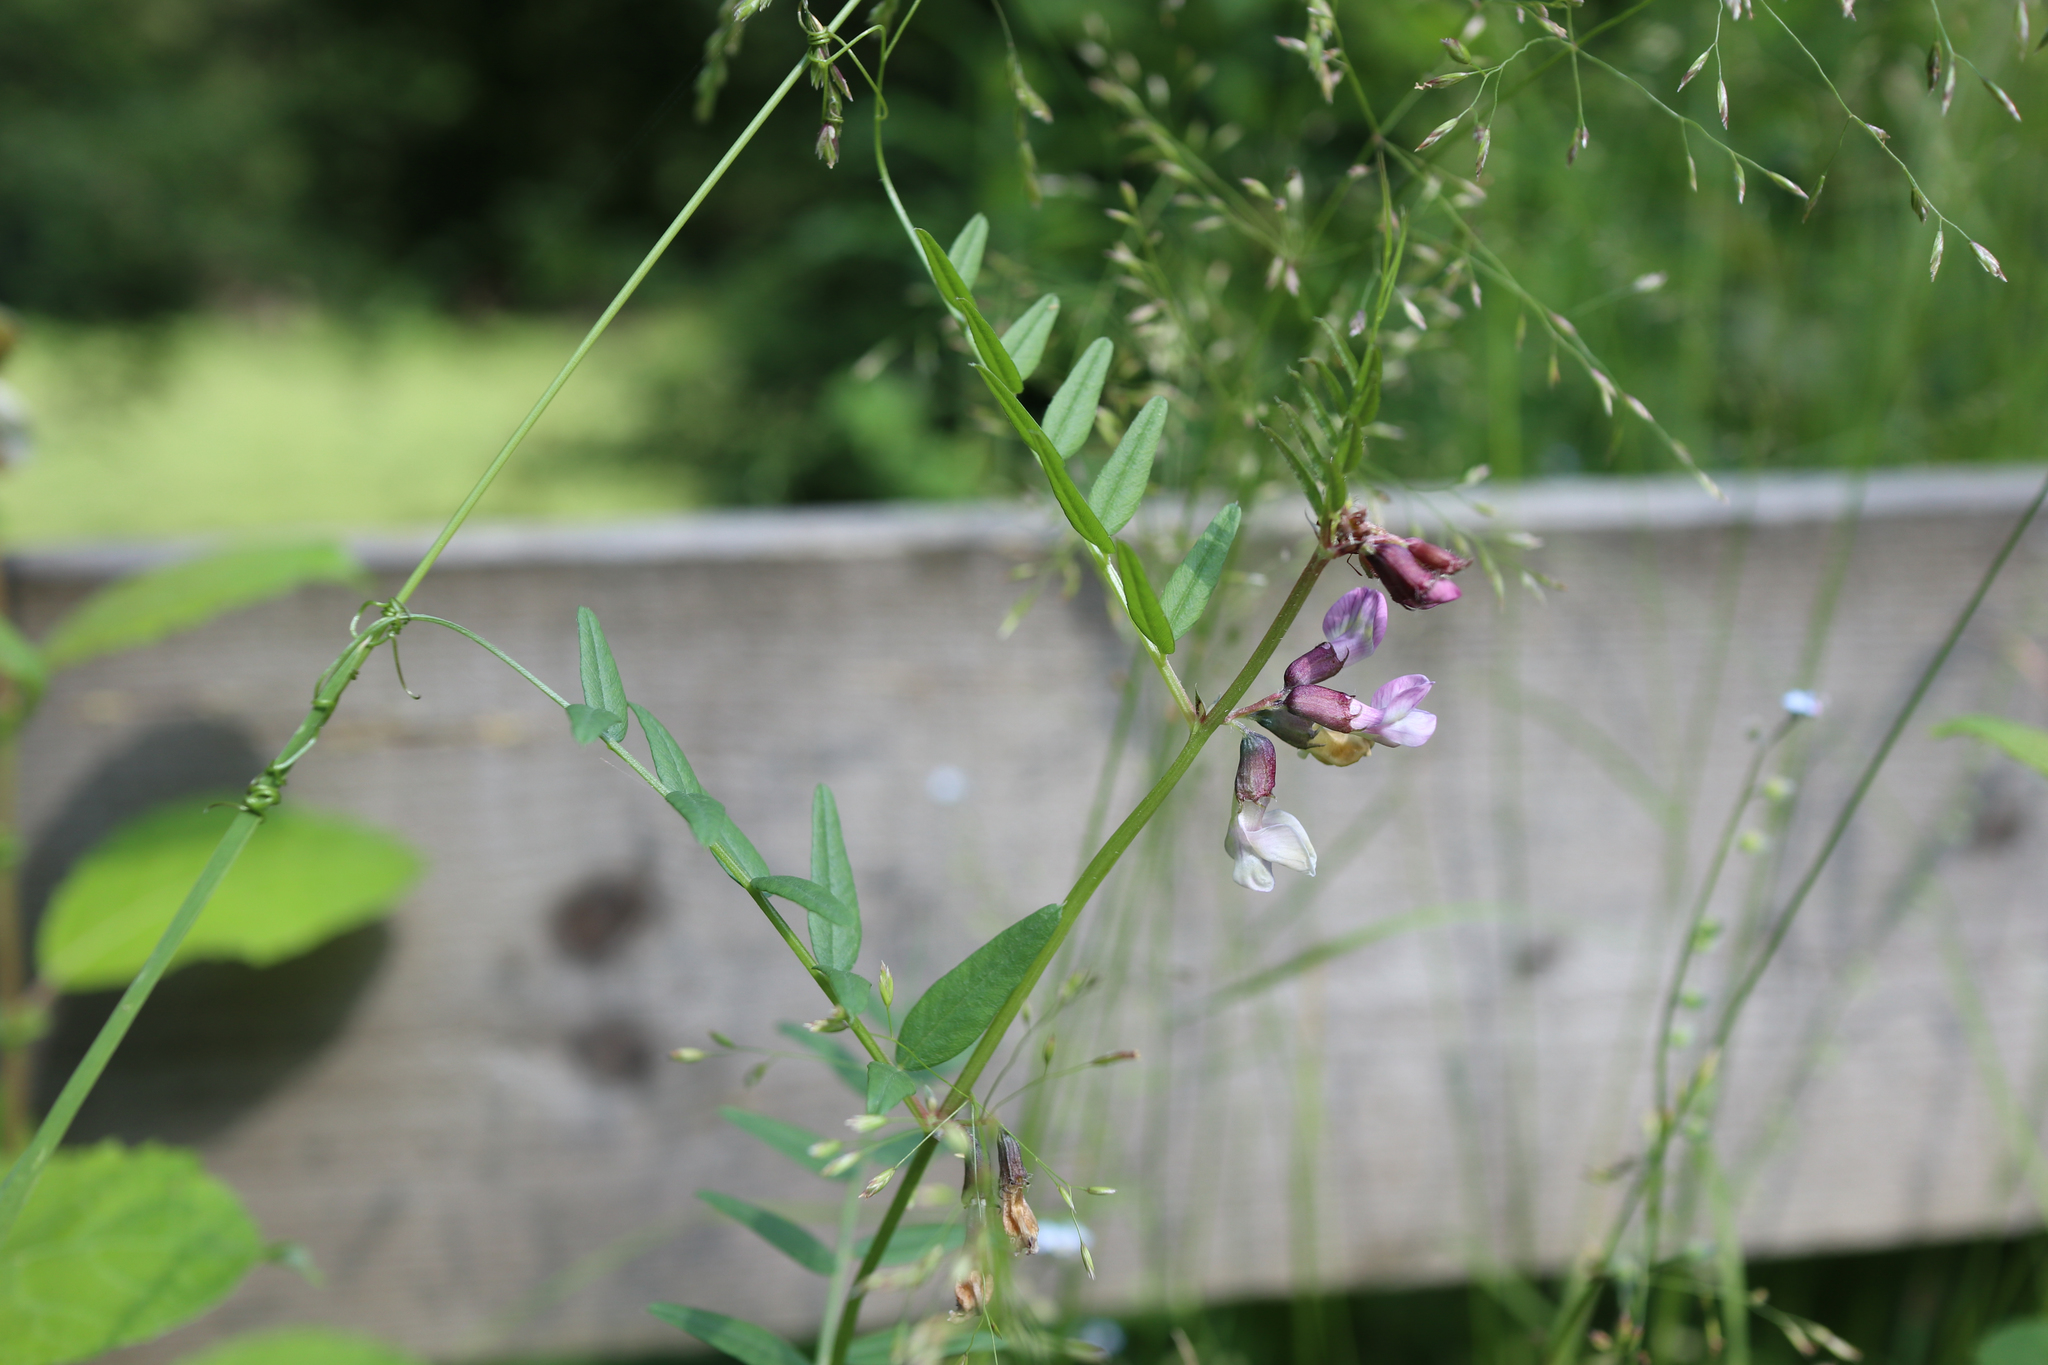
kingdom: Plantae
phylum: Tracheophyta
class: Magnoliopsida
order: Fabales
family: Fabaceae
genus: Vicia
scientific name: Vicia sepium
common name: Bush vetch
